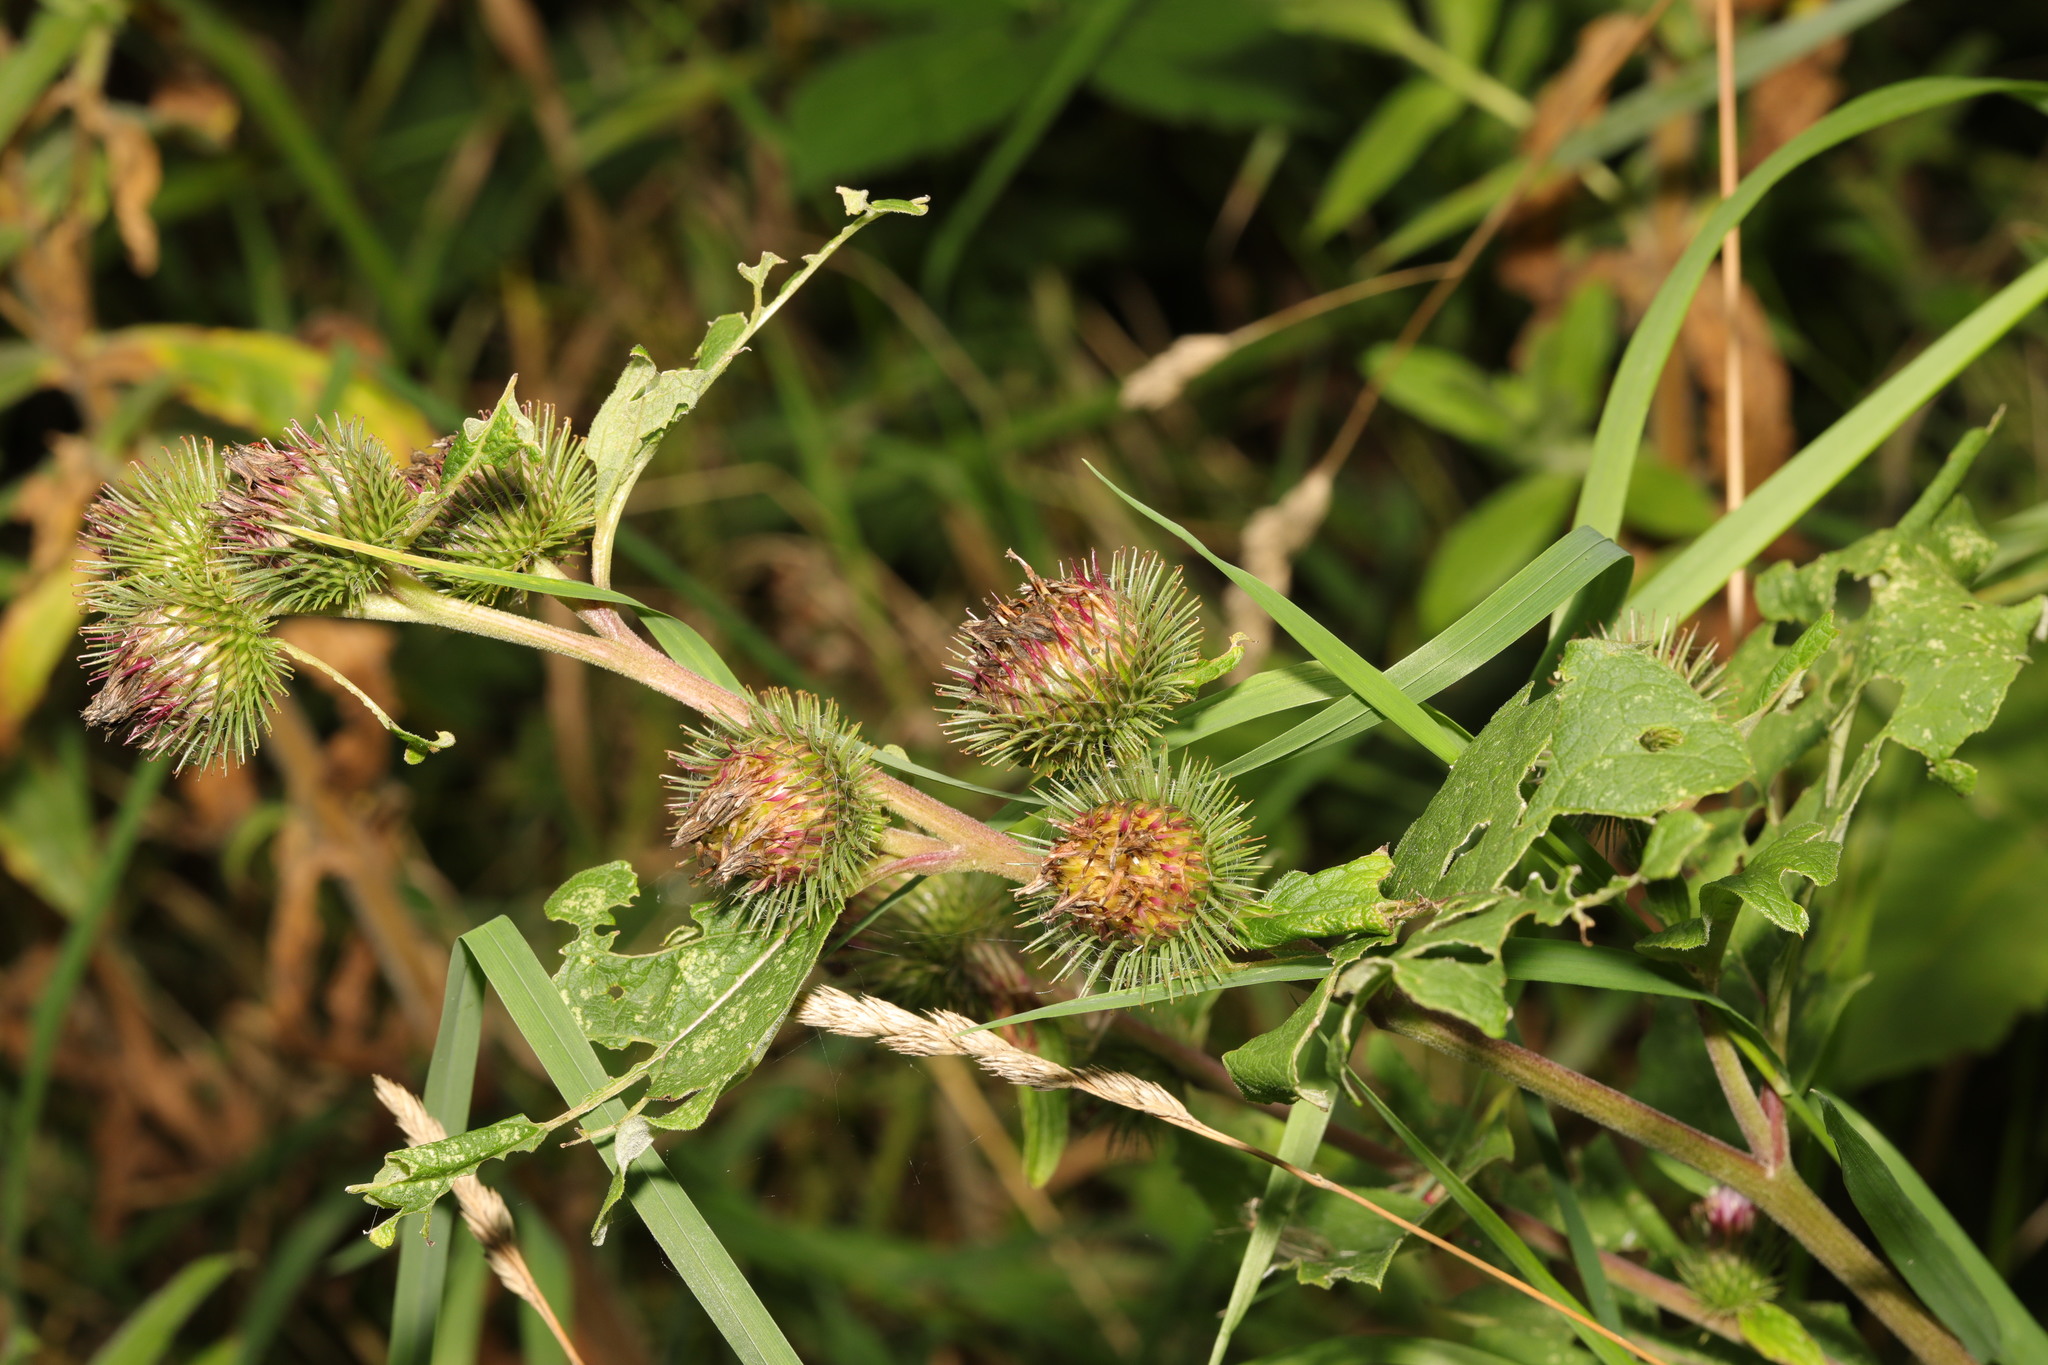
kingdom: Plantae
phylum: Tracheophyta
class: Magnoliopsida
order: Asterales
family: Asteraceae
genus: Arctium
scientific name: Arctium minus
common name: Lesser burdock
